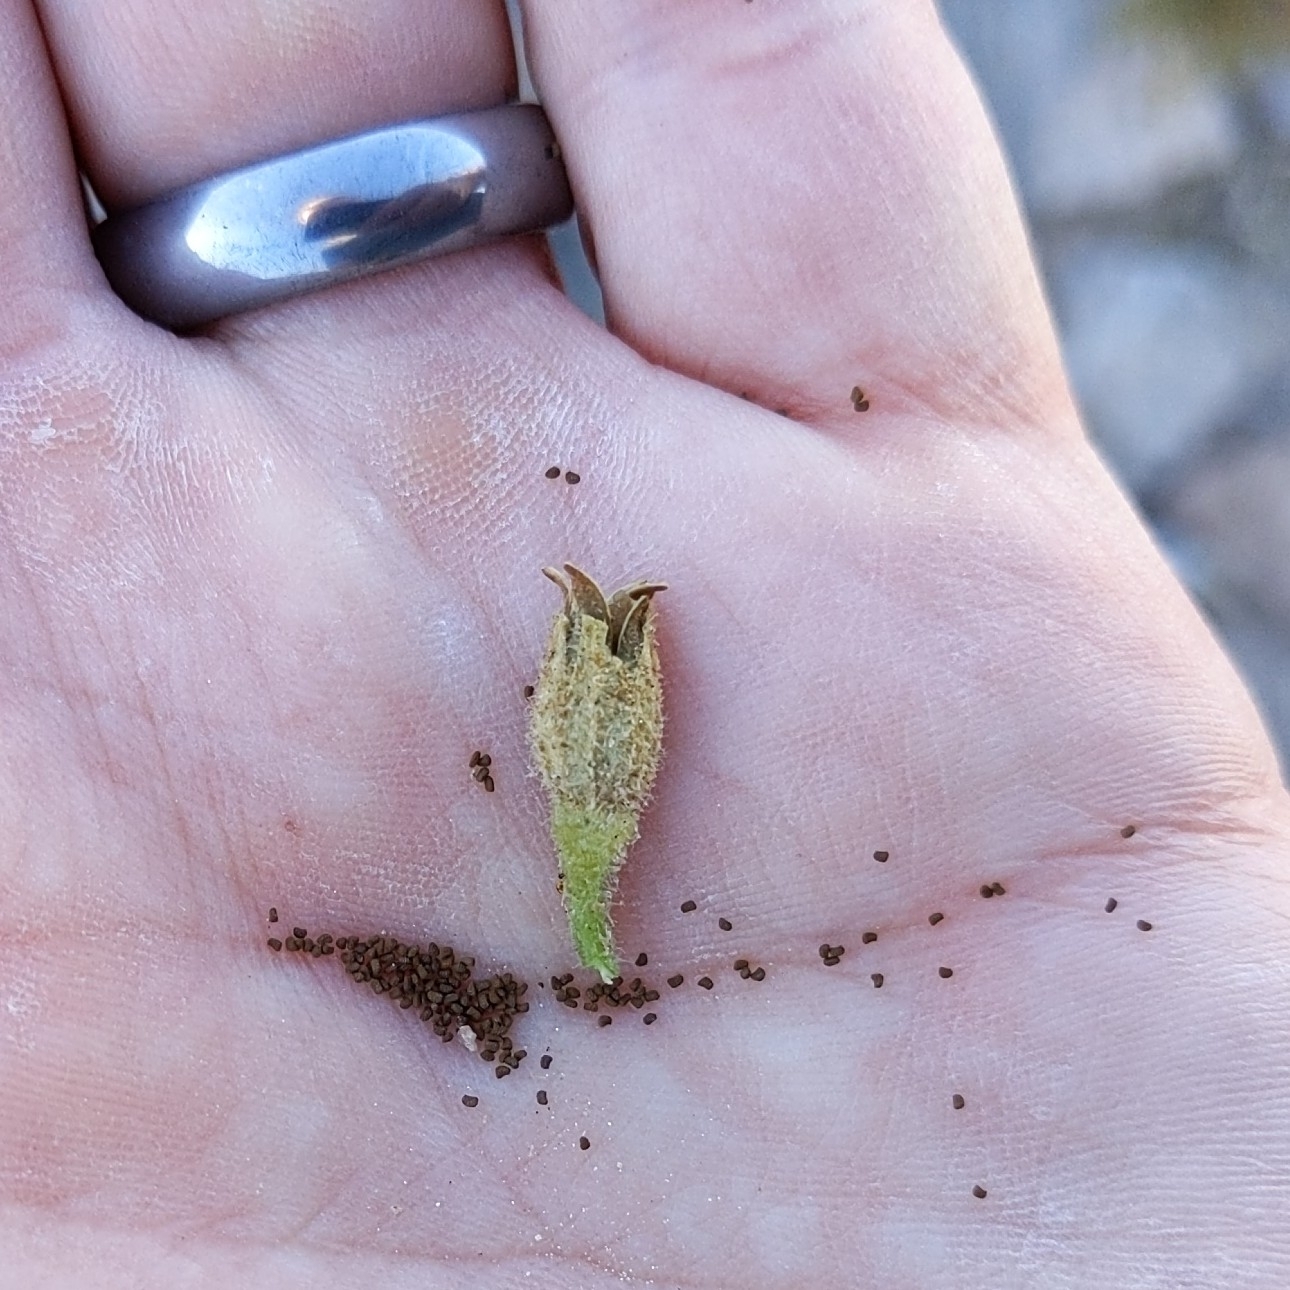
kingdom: Plantae
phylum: Tracheophyta
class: Magnoliopsida
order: Solanales
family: Solanaceae
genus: Nicotiana
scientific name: Nicotiana obtusifolia
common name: Desert tobacco
